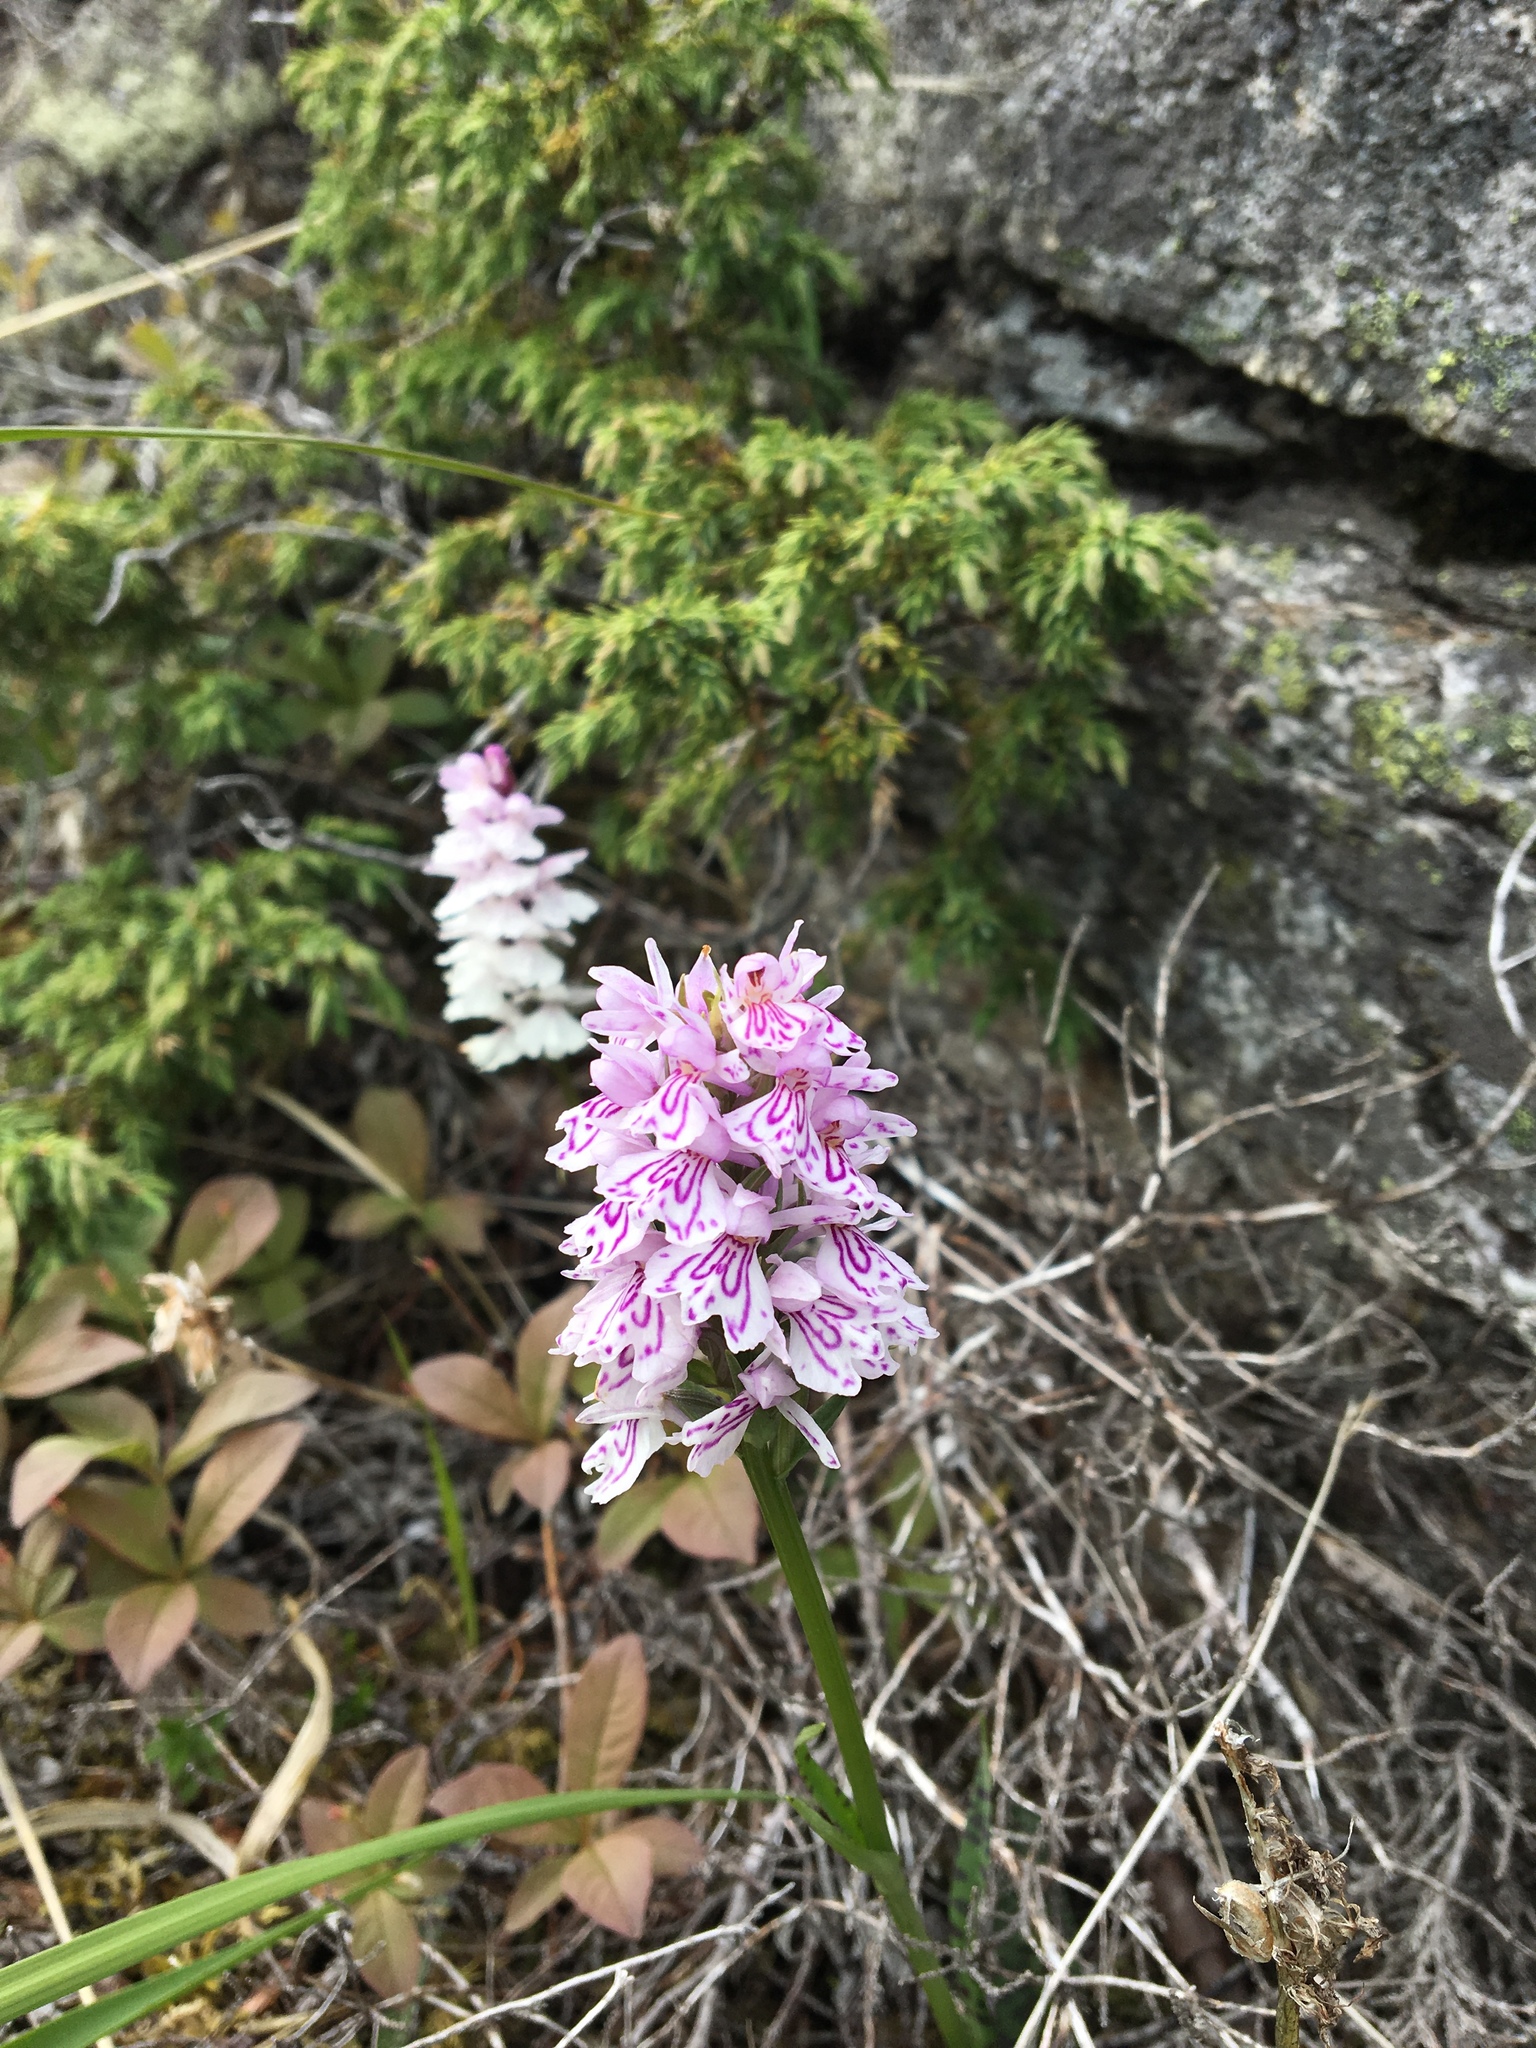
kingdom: Plantae
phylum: Tracheophyta
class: Liliopsida
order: Asparagales
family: Orchidaceae
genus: Dactylorhiza
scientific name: Dactylorhiza maculata
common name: Heath spotted-orchid
